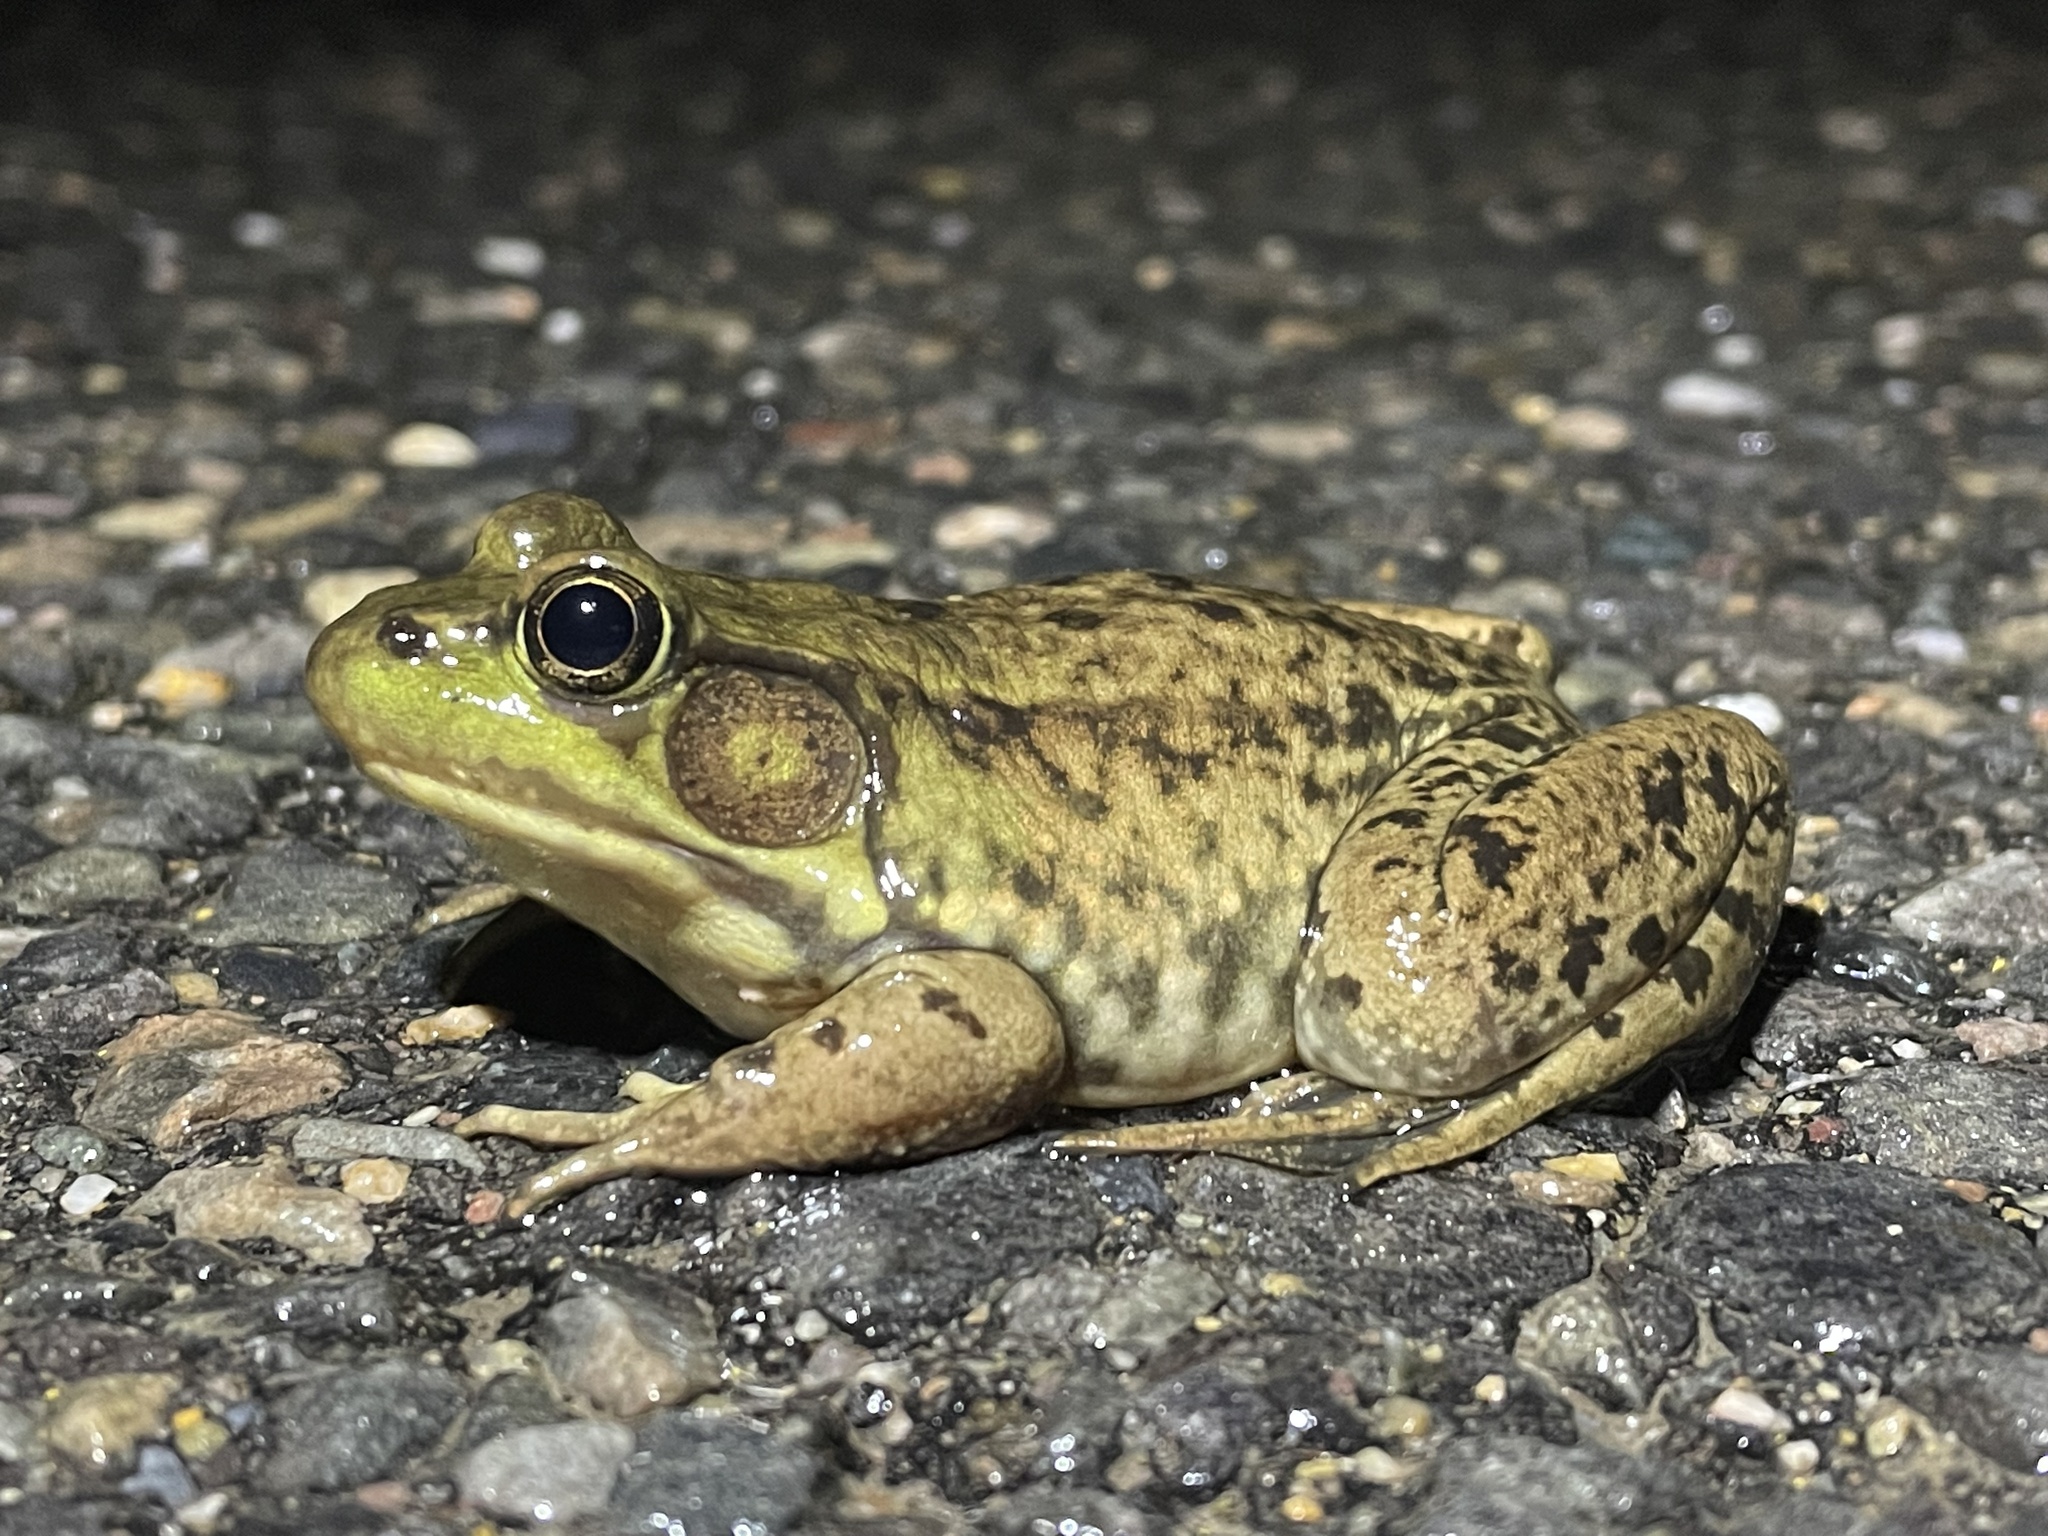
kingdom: Animalia
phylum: Chordata
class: Amphibia
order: Anura
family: Ranidae
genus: Lithobates
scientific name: Lithobates catesbeianus
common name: American bullfrog
